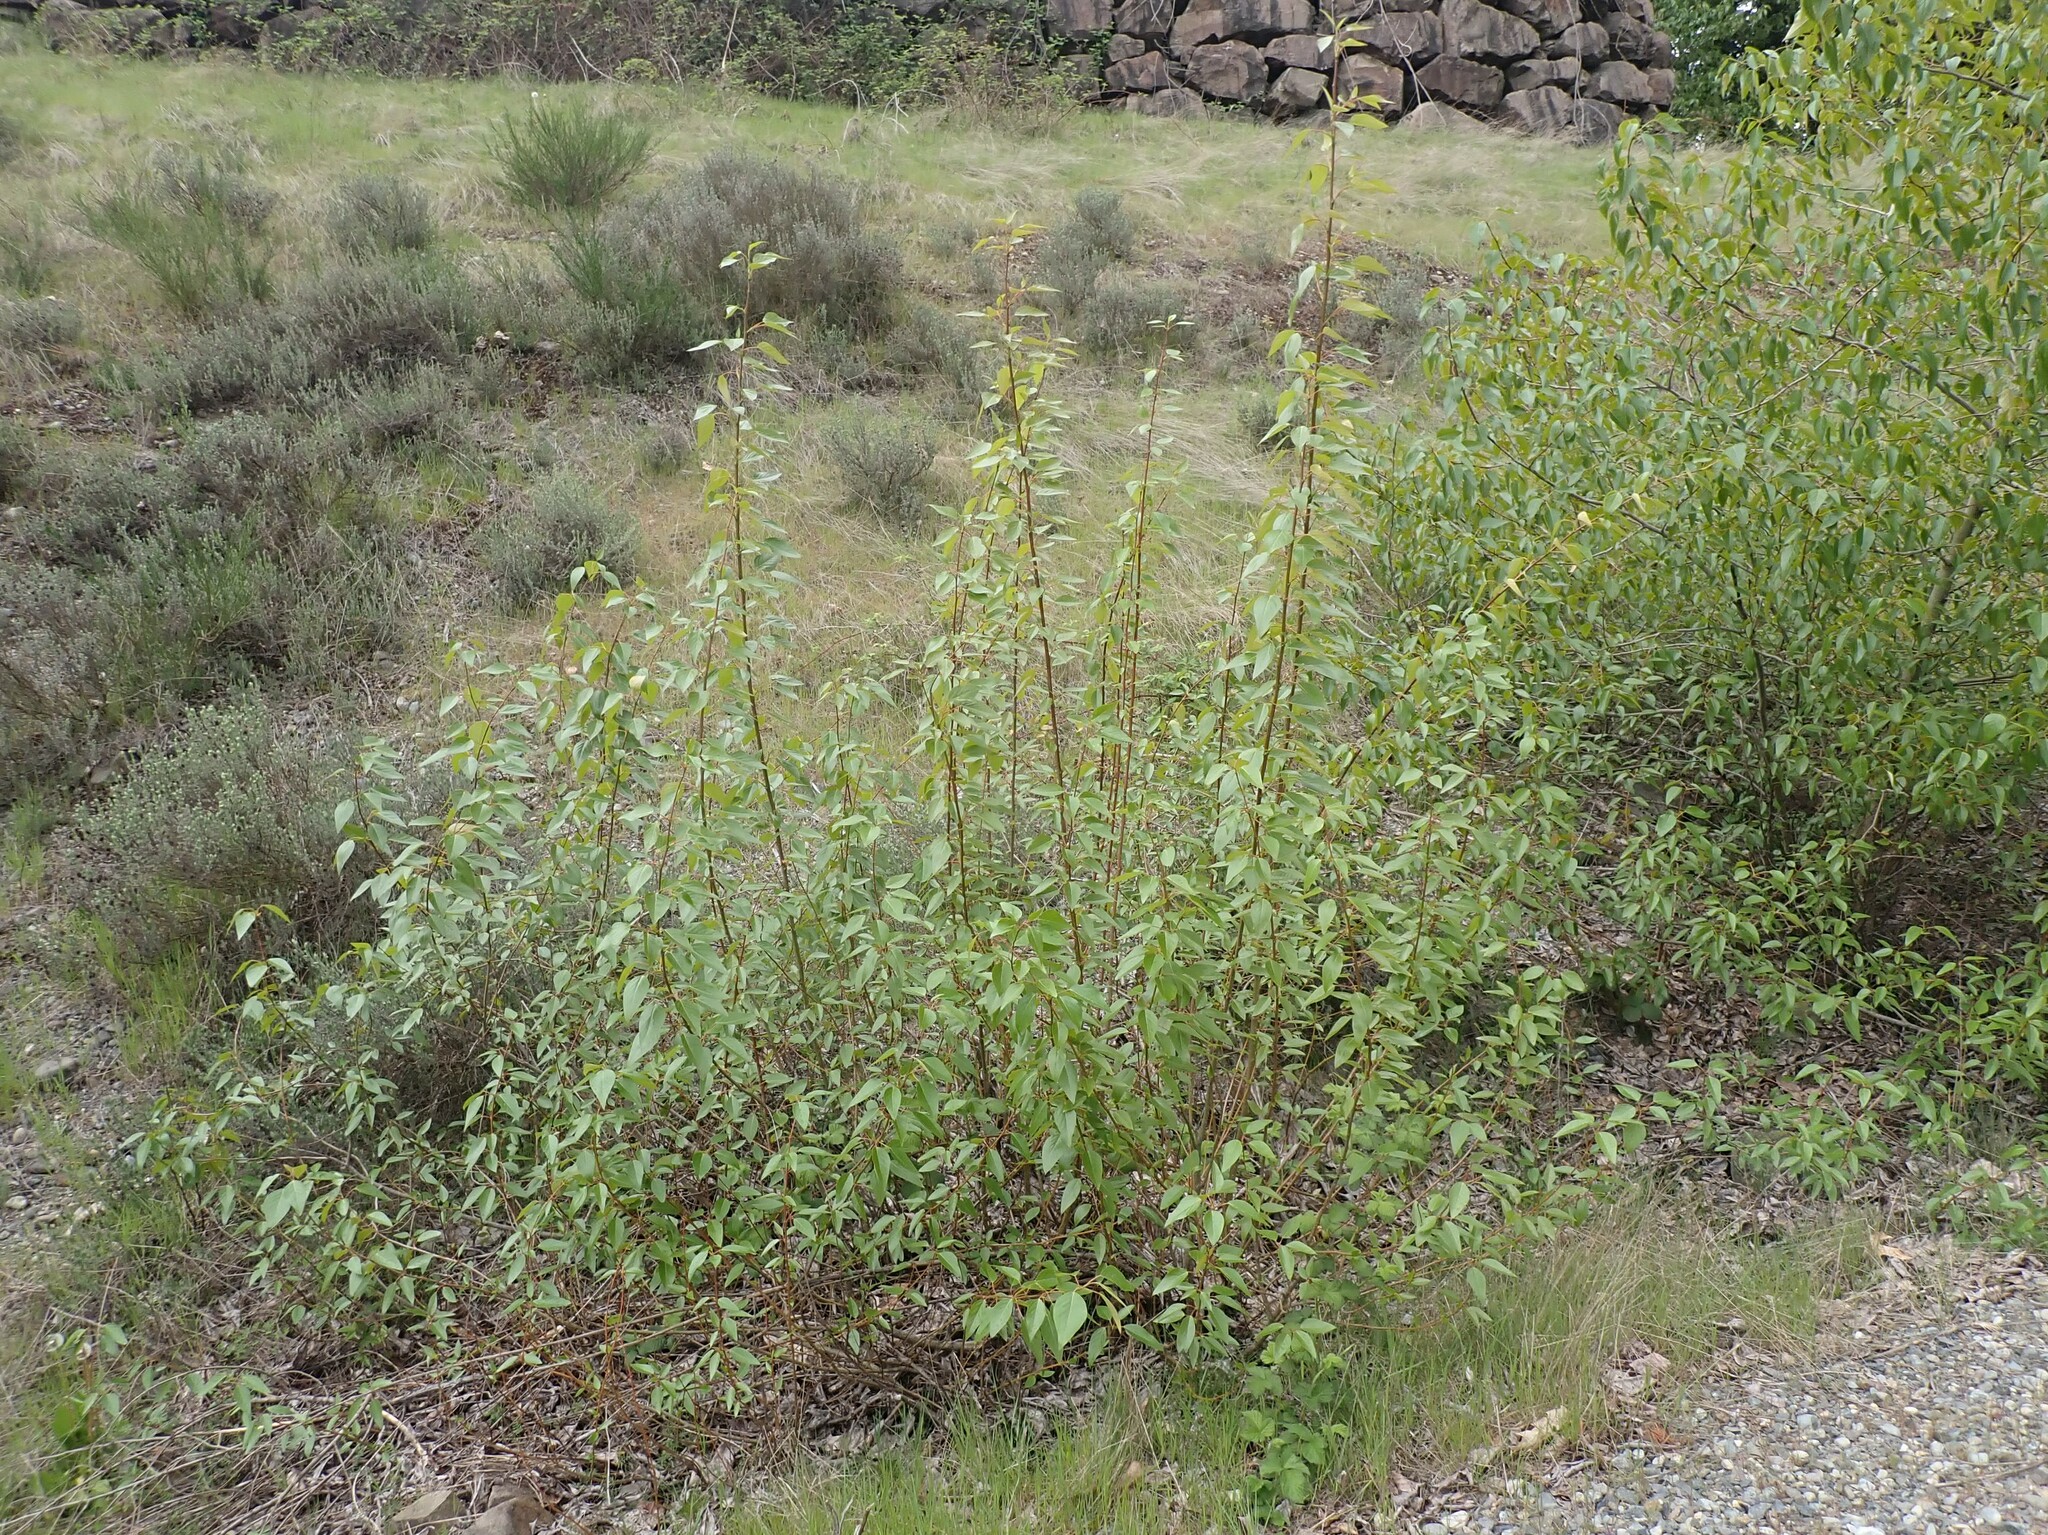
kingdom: Plantae
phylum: Tracheophyta
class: Magnoliopsida
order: Malpighiales
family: Salicaceae
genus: Populus
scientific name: Populus trichocarpa
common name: Black cottonwood
